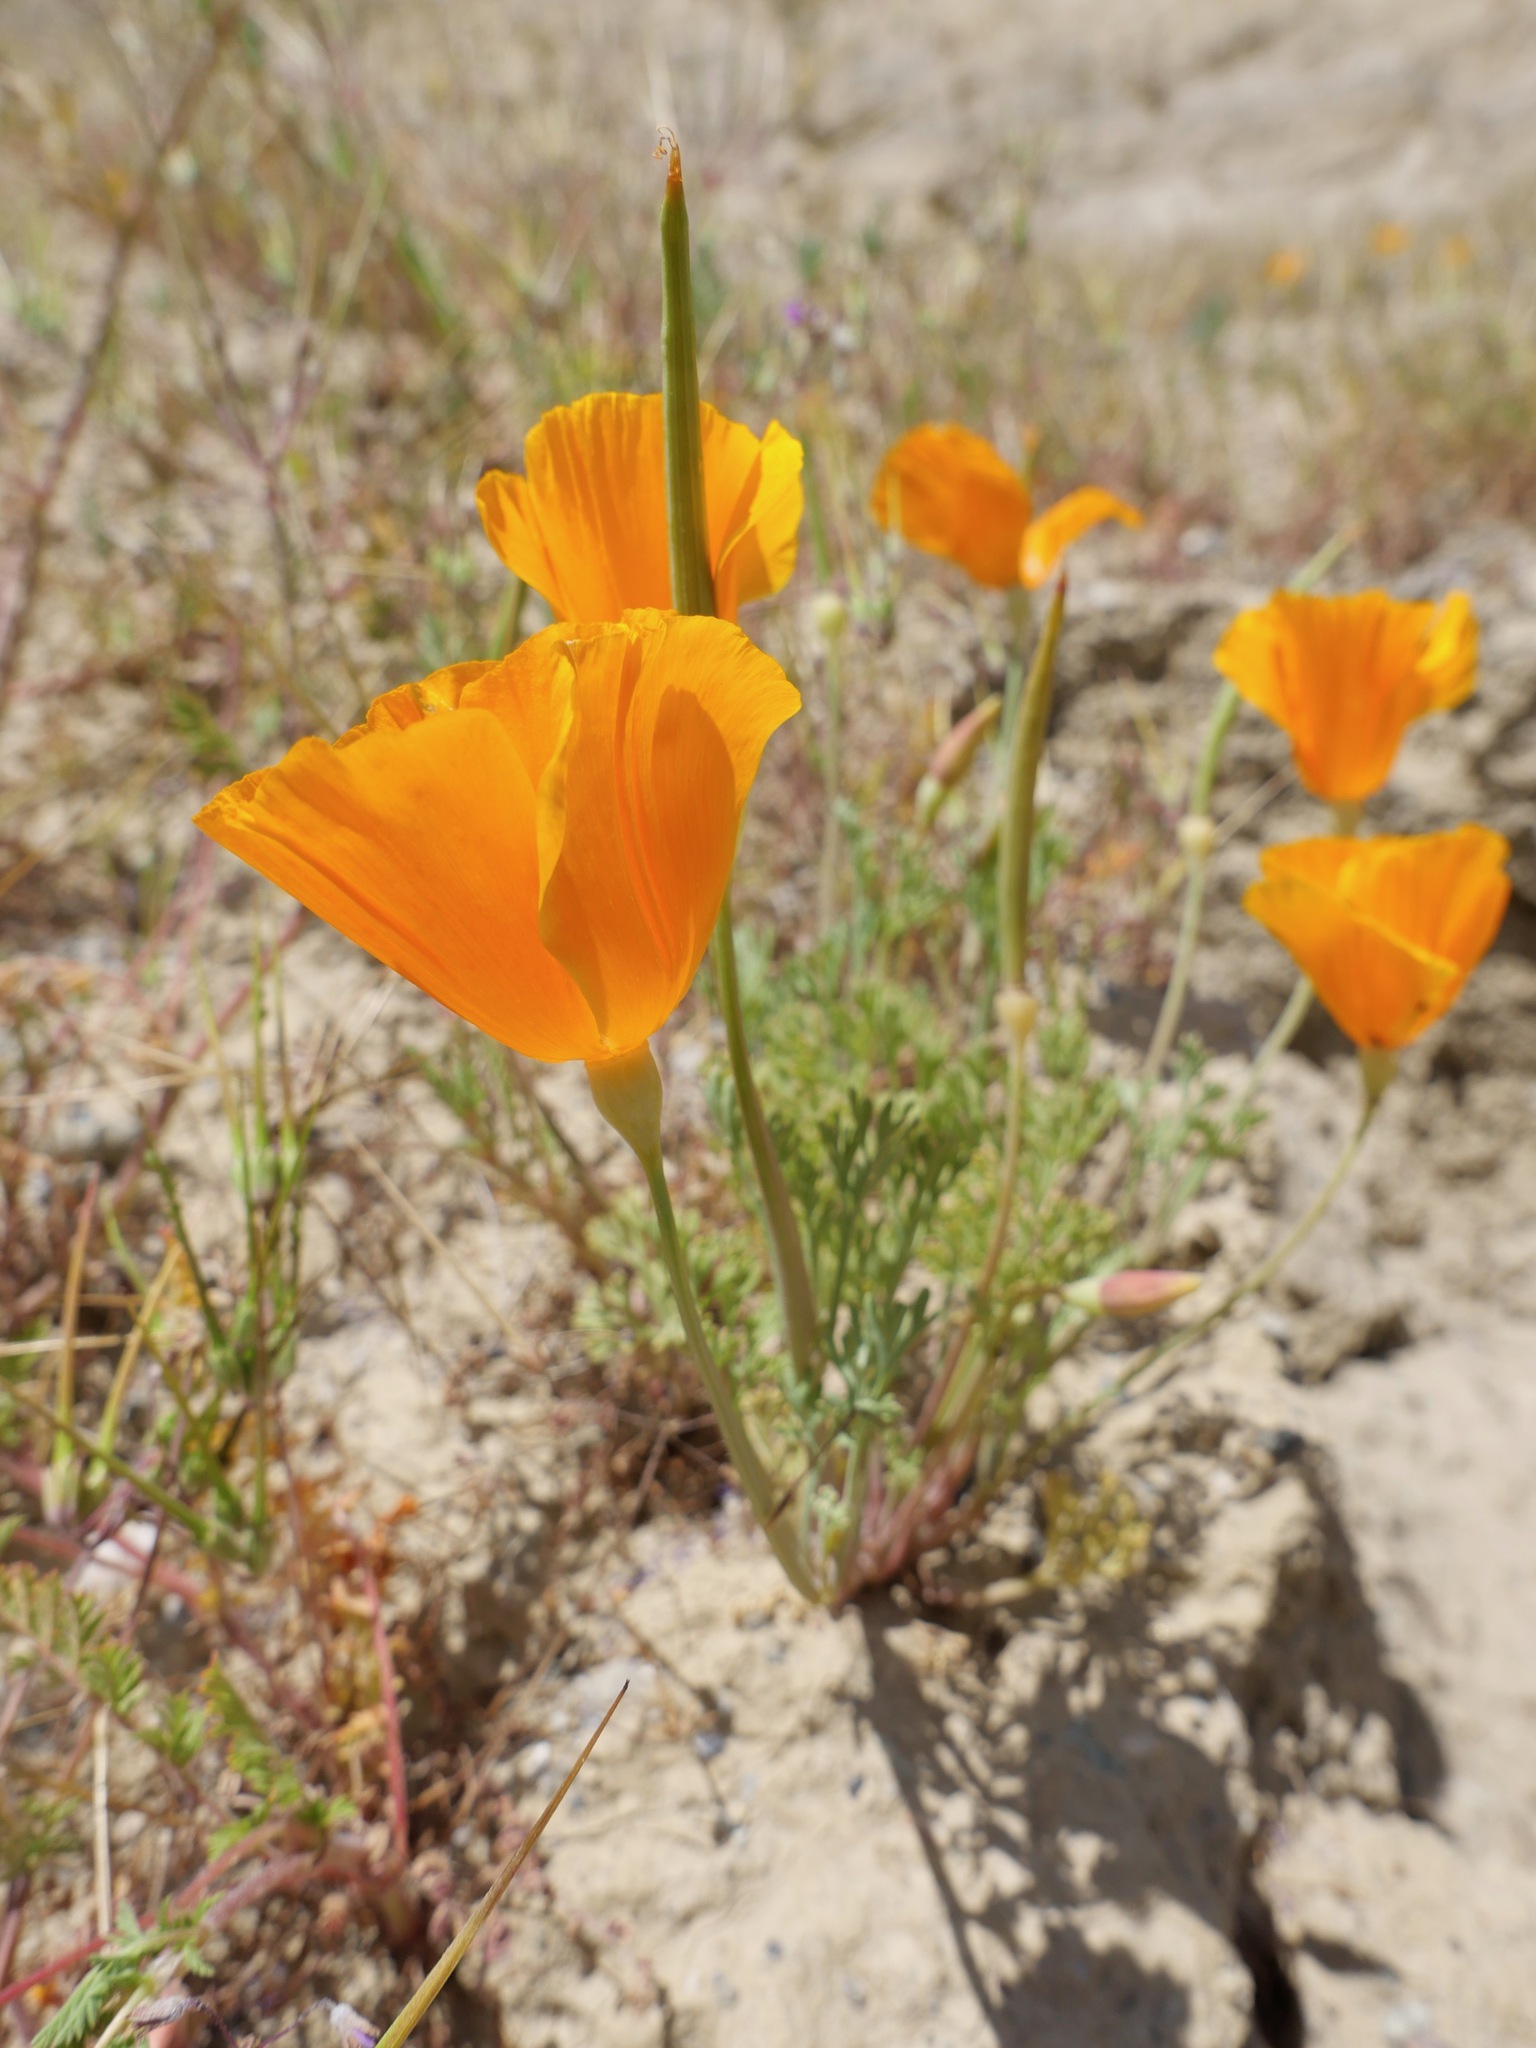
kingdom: Plantae
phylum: Tracheophyta
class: Magnoliopsida
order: Ranunculales
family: Papaveraceae
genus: Eschscholzia
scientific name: Eschscholzia lemmonii
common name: Lemmon's poppy
